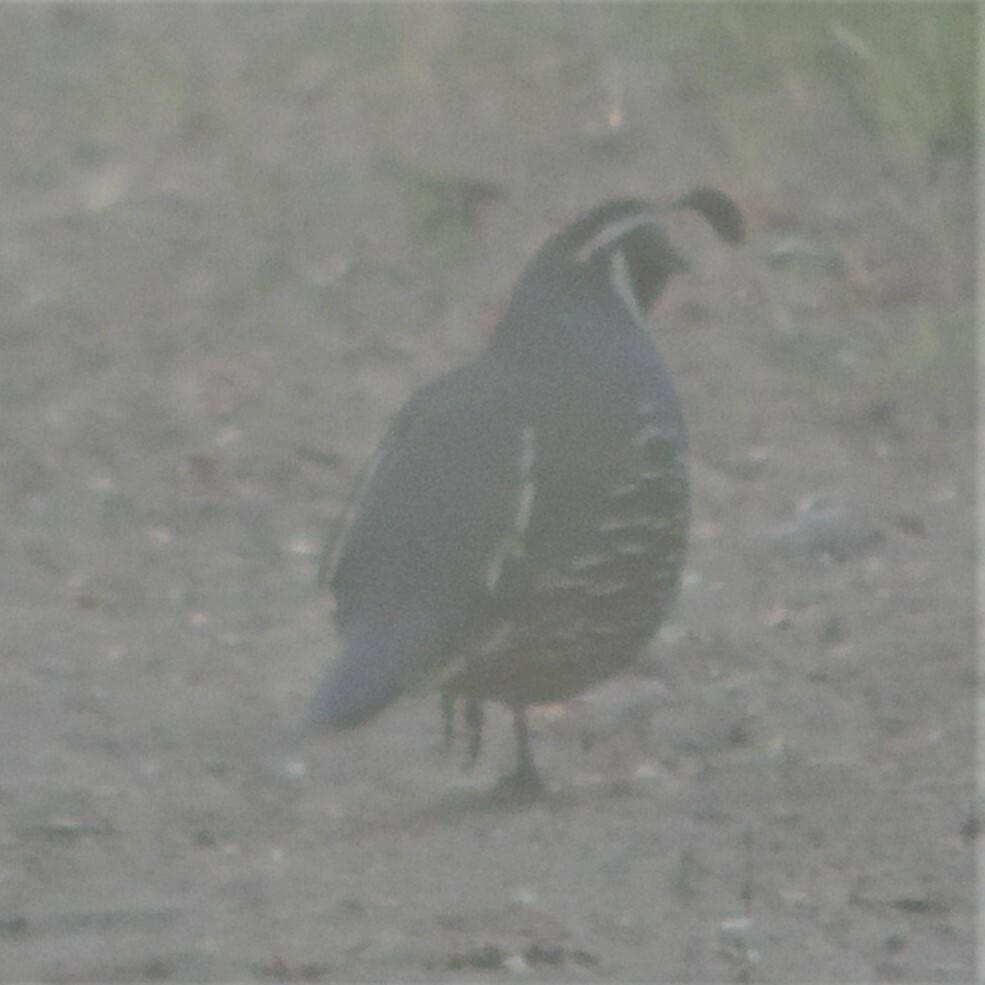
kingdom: Animalia
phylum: Chordata
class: Aves
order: Galliformes
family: Odontophoridae
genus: Callipepla
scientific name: Callipepla californica
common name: California quail
